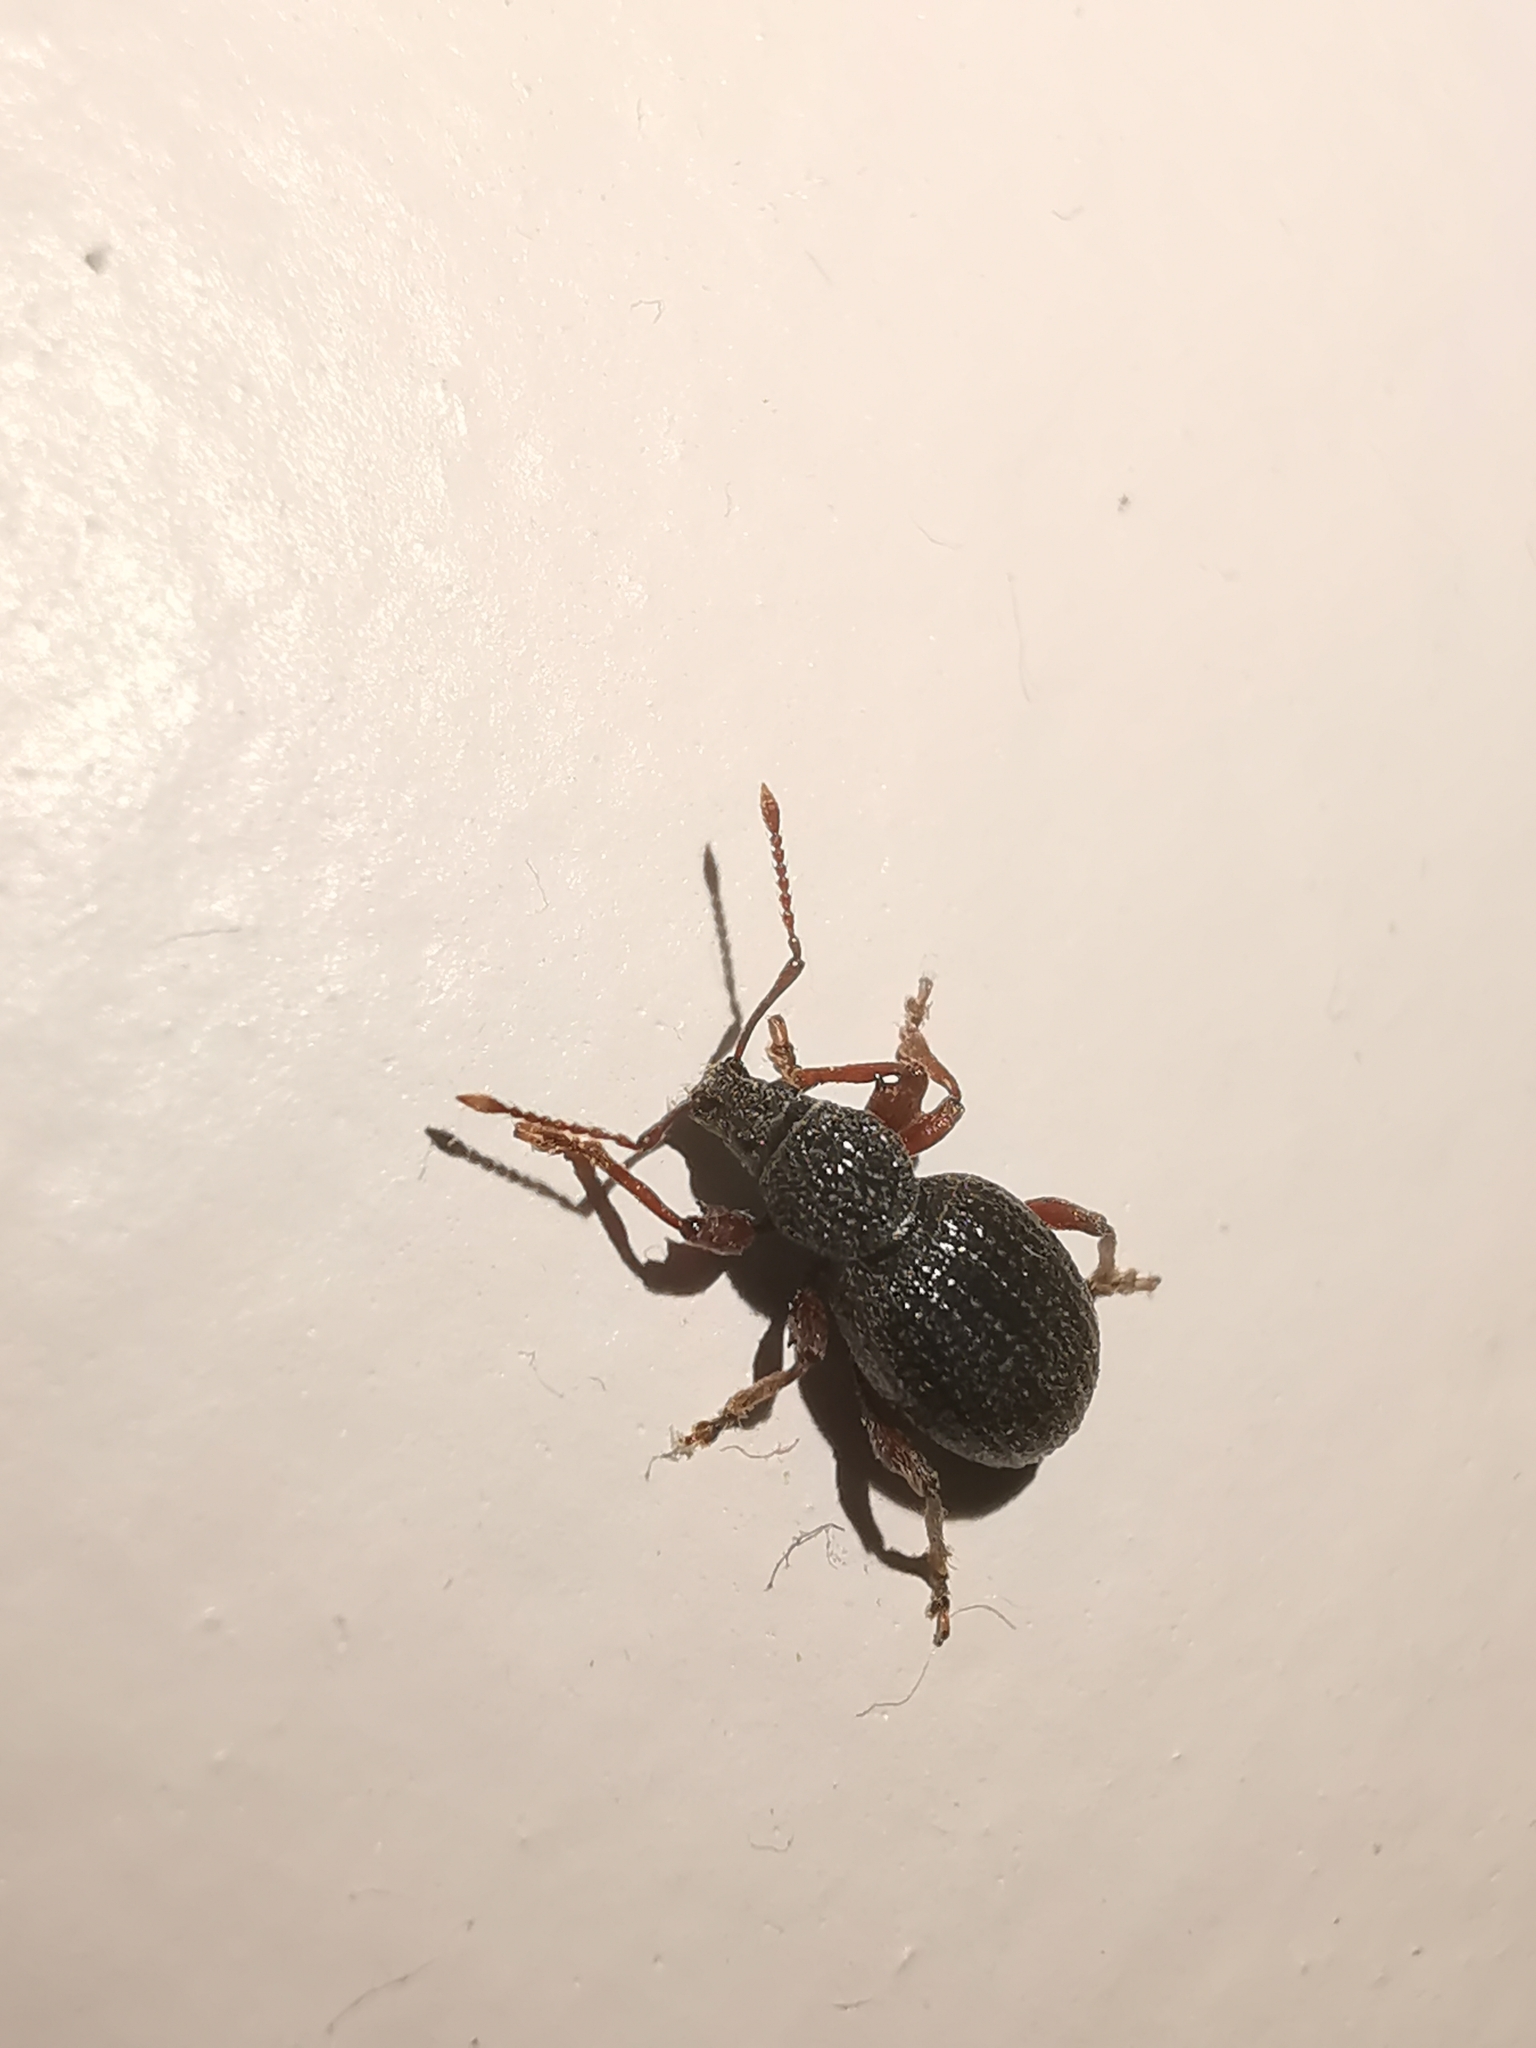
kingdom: Animalia
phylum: Arthropoda
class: Insecta
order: Coleoptera
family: Curculionidae
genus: Otiorhynchus
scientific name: Otiorhynchus ovatus
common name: Strawberry root weevil
